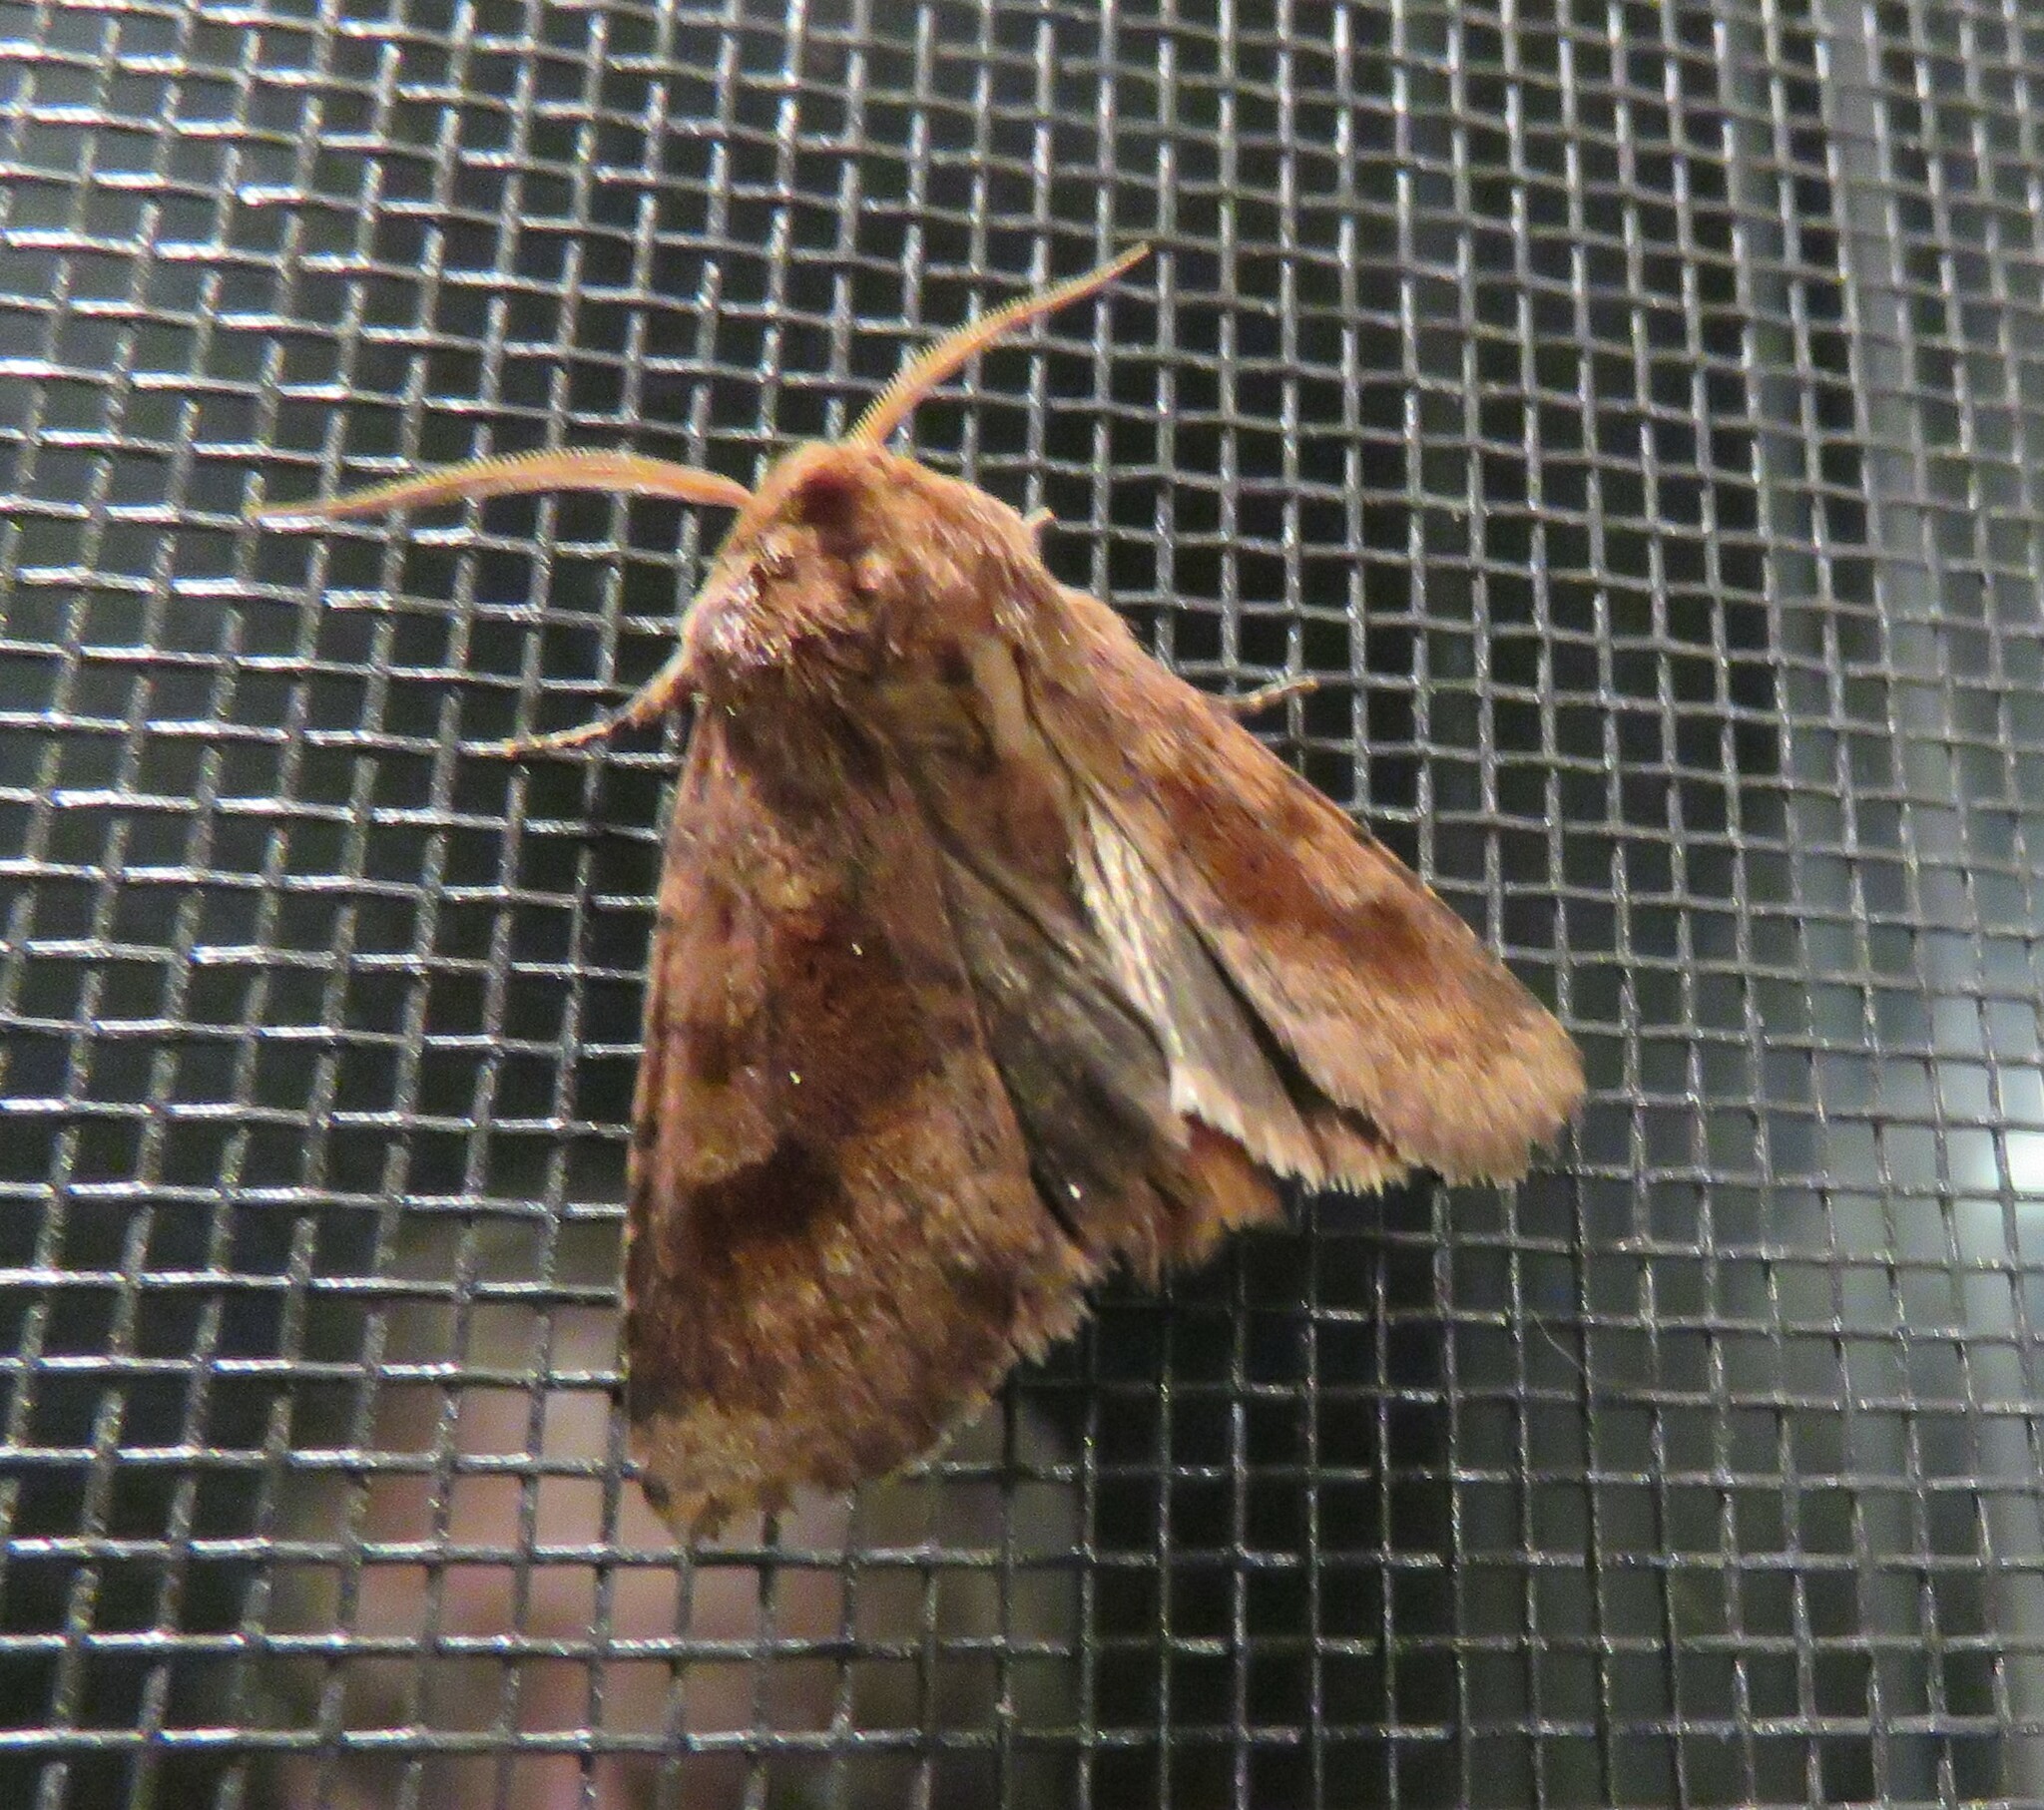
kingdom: Animalia
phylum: Arthropoda
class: Insecta
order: Lepidoptera
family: Noctuidae
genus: Nephelodes
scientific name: Nephelodes minians
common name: Bronzed cutworm
